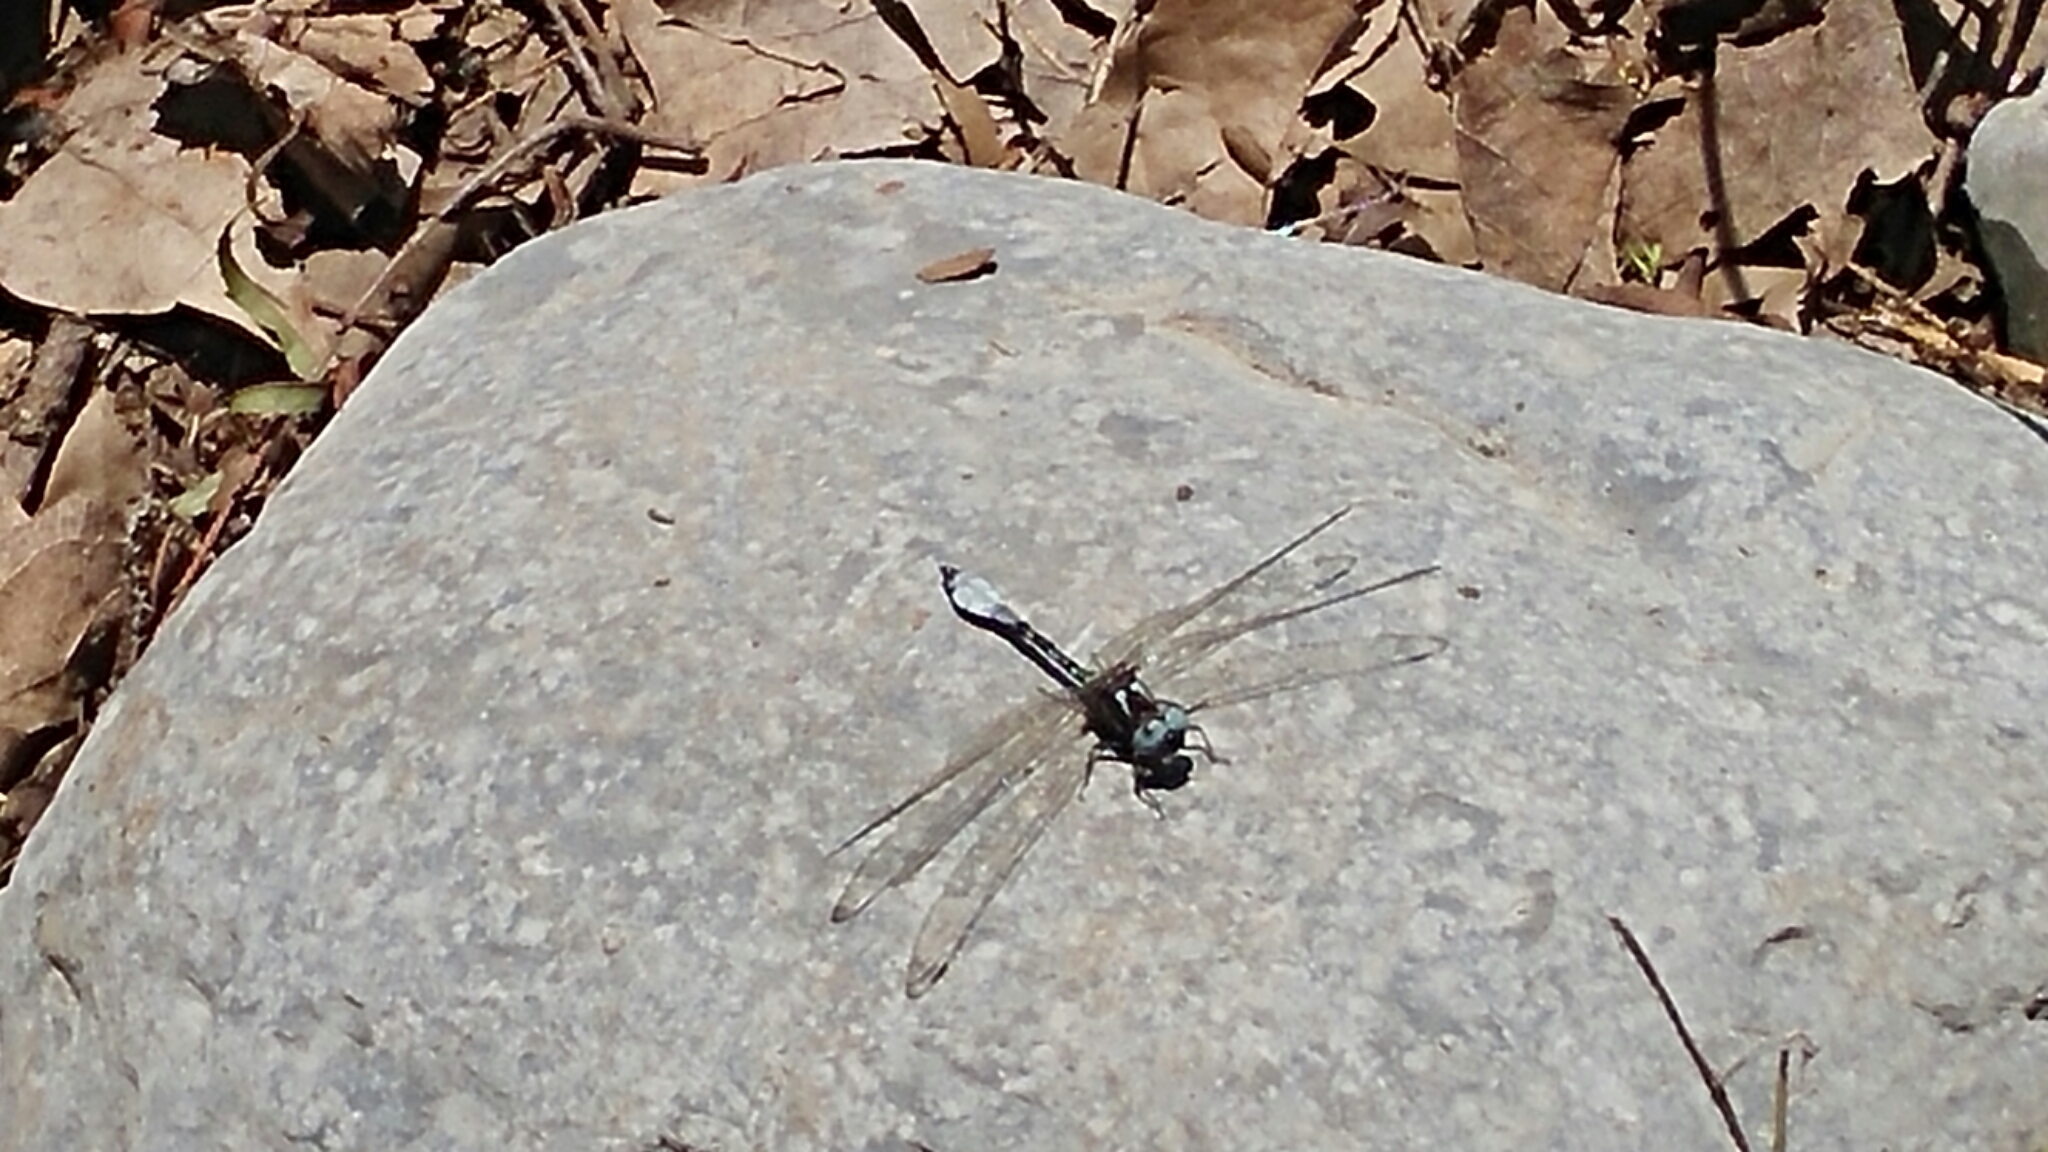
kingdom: Animalia
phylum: Arthropoda
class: Insecta
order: Odonata
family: Libellulidae
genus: Macrothemis
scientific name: Macrothemis pseudimitans
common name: White-tailed sylph
